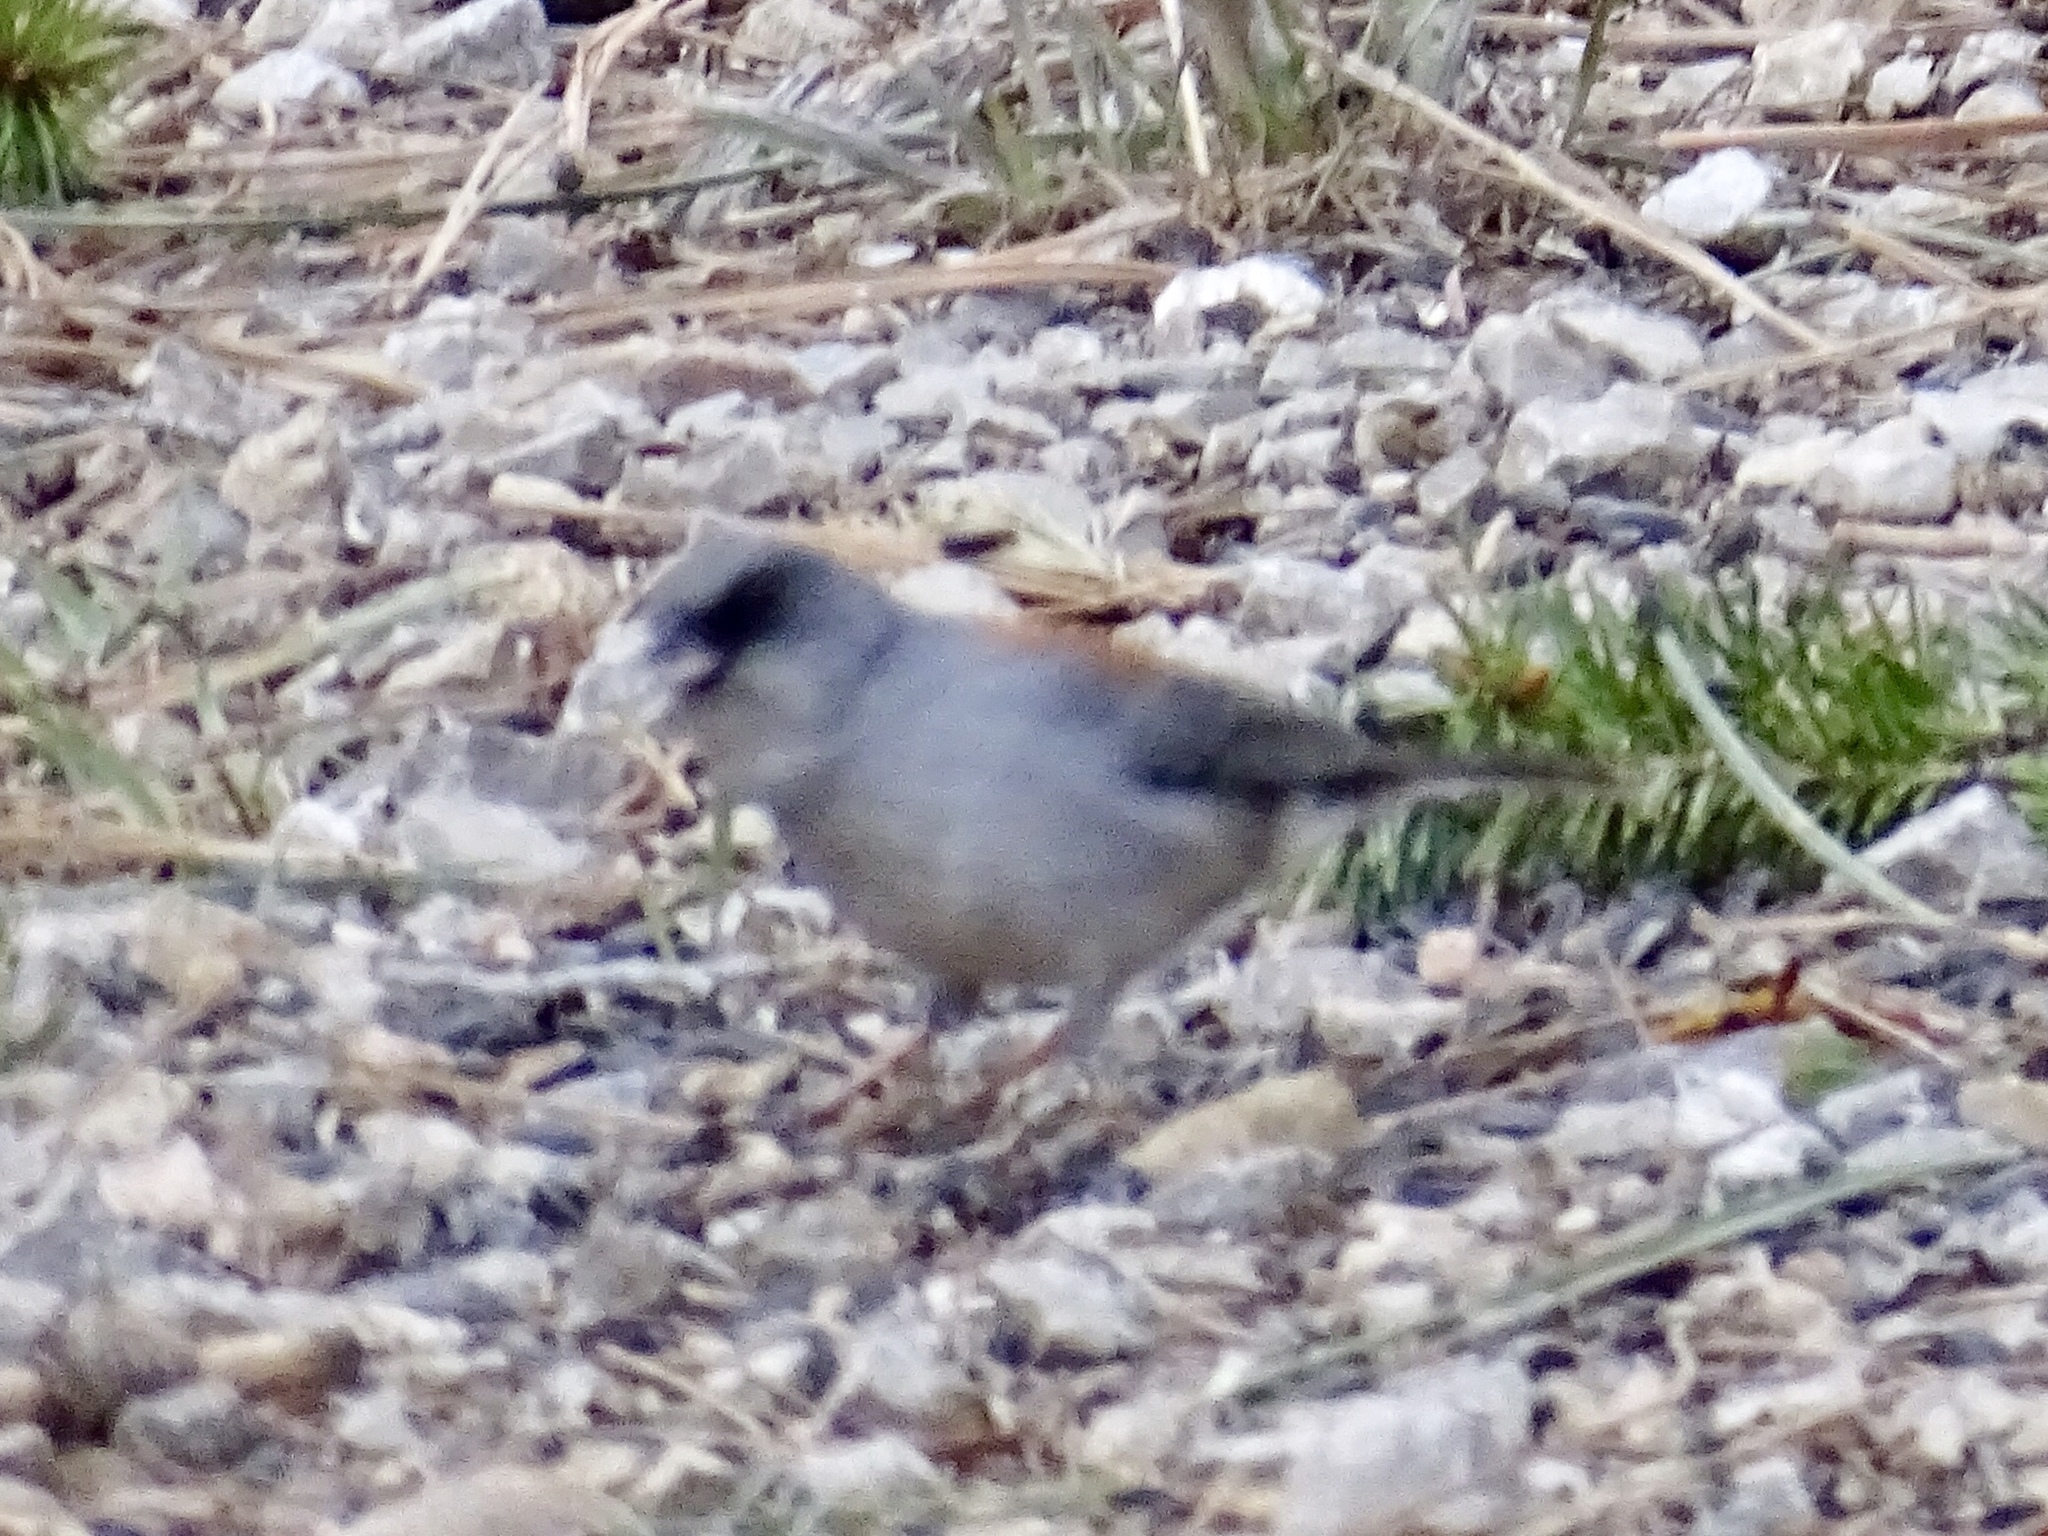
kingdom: Animalia
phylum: Chordata
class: Aves
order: Passeriformes
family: Passerellidae
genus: Junco
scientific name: Junco hyemalis
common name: Dark-eyed junco
